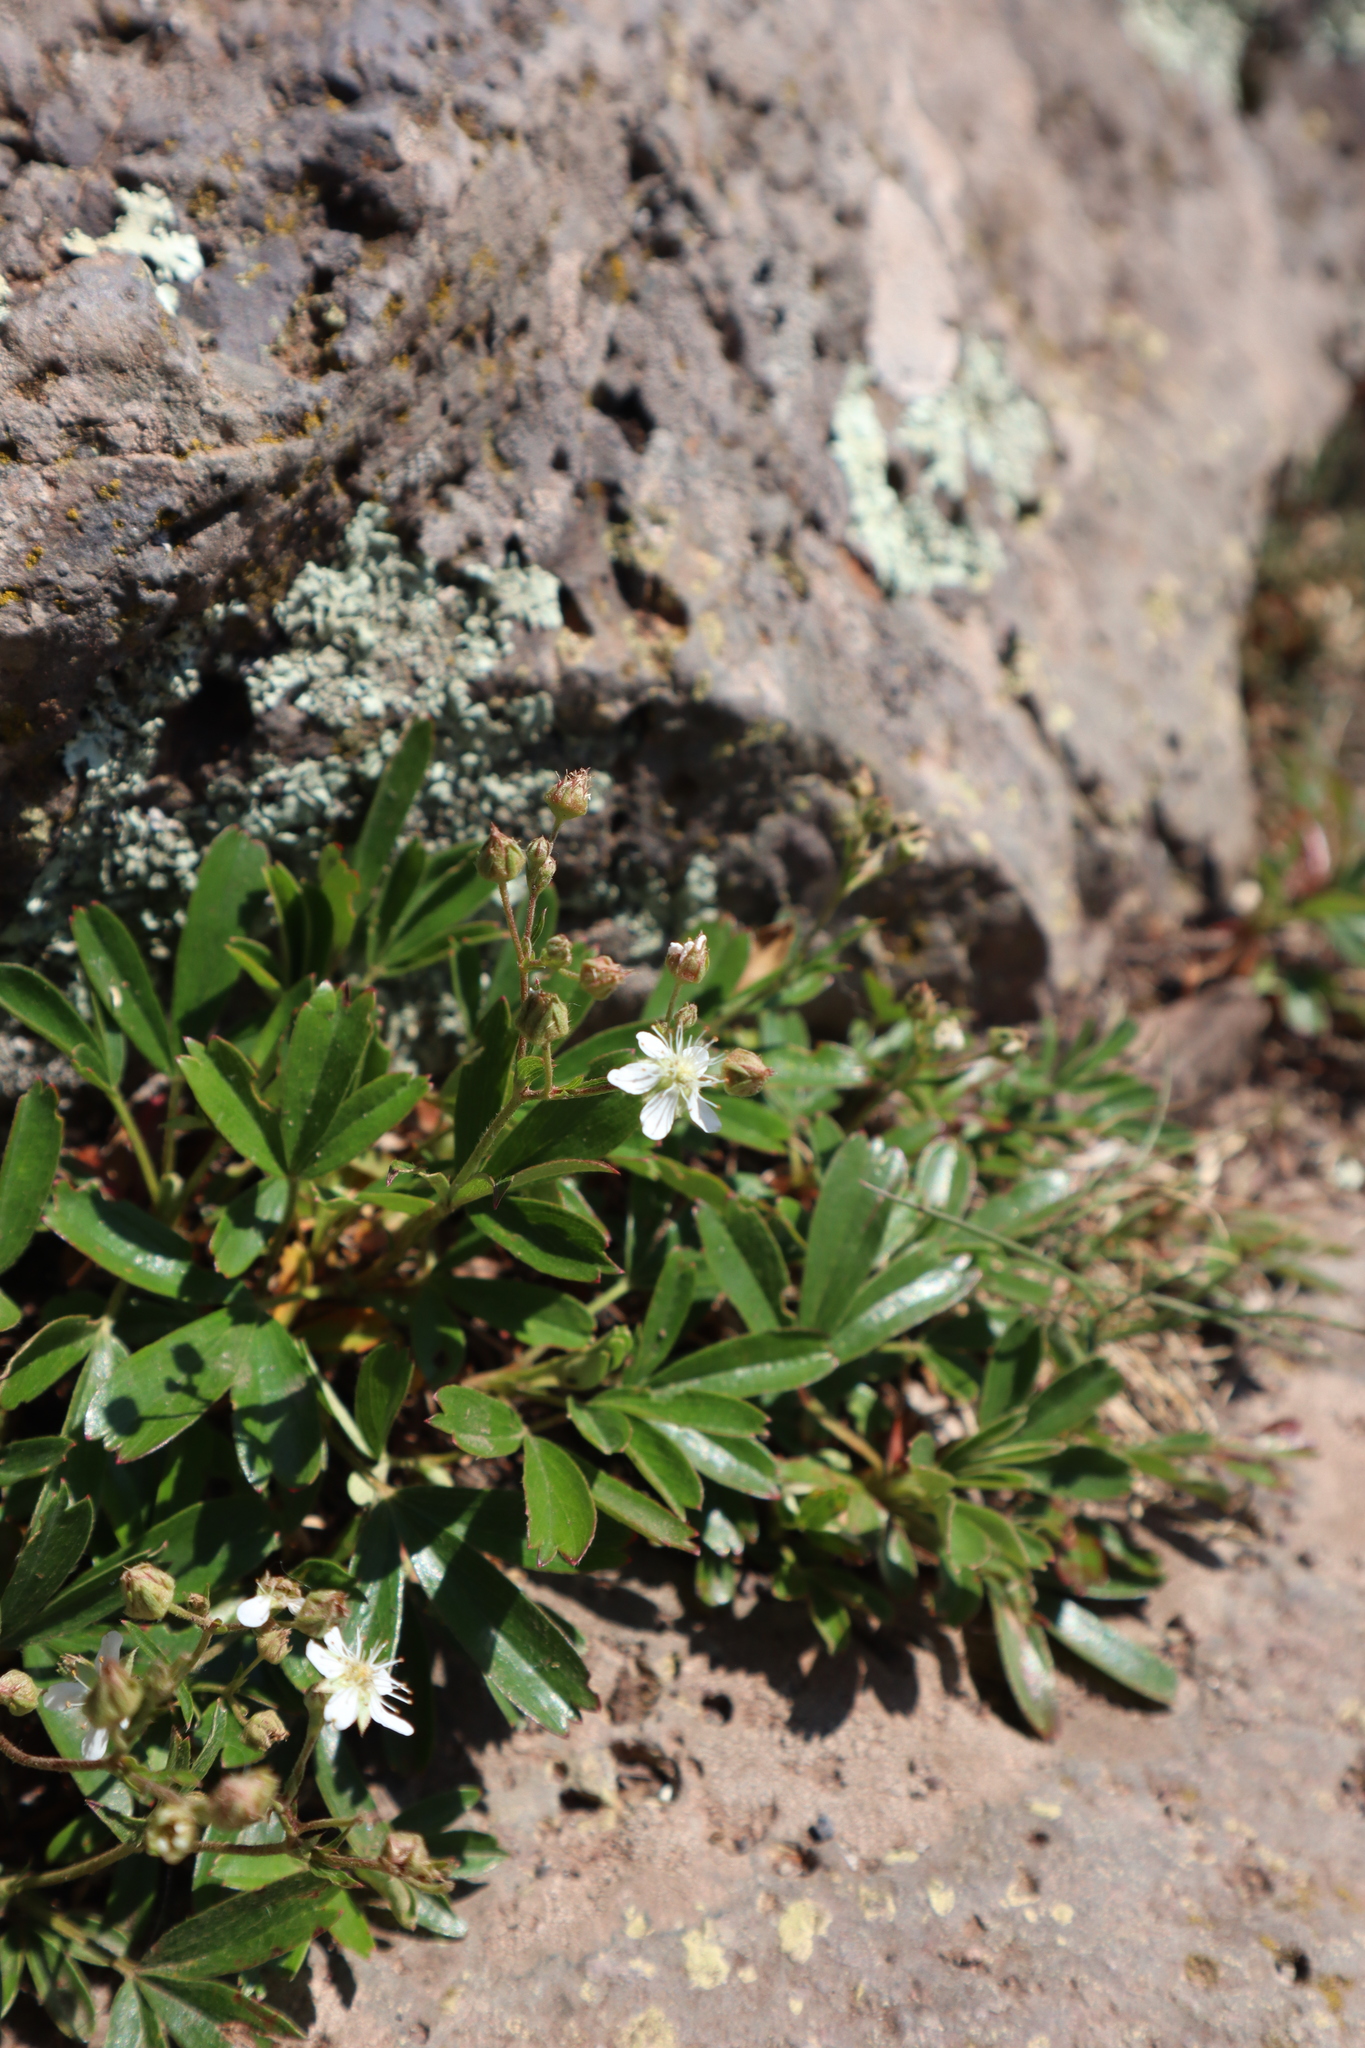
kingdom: Plantae
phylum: Tracheophyta
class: Magnoliopsida
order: Rosales
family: Rosaceae
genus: Sibbaldia
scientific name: Sibbaldia tridentata
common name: Three-toothed cinquefoil
